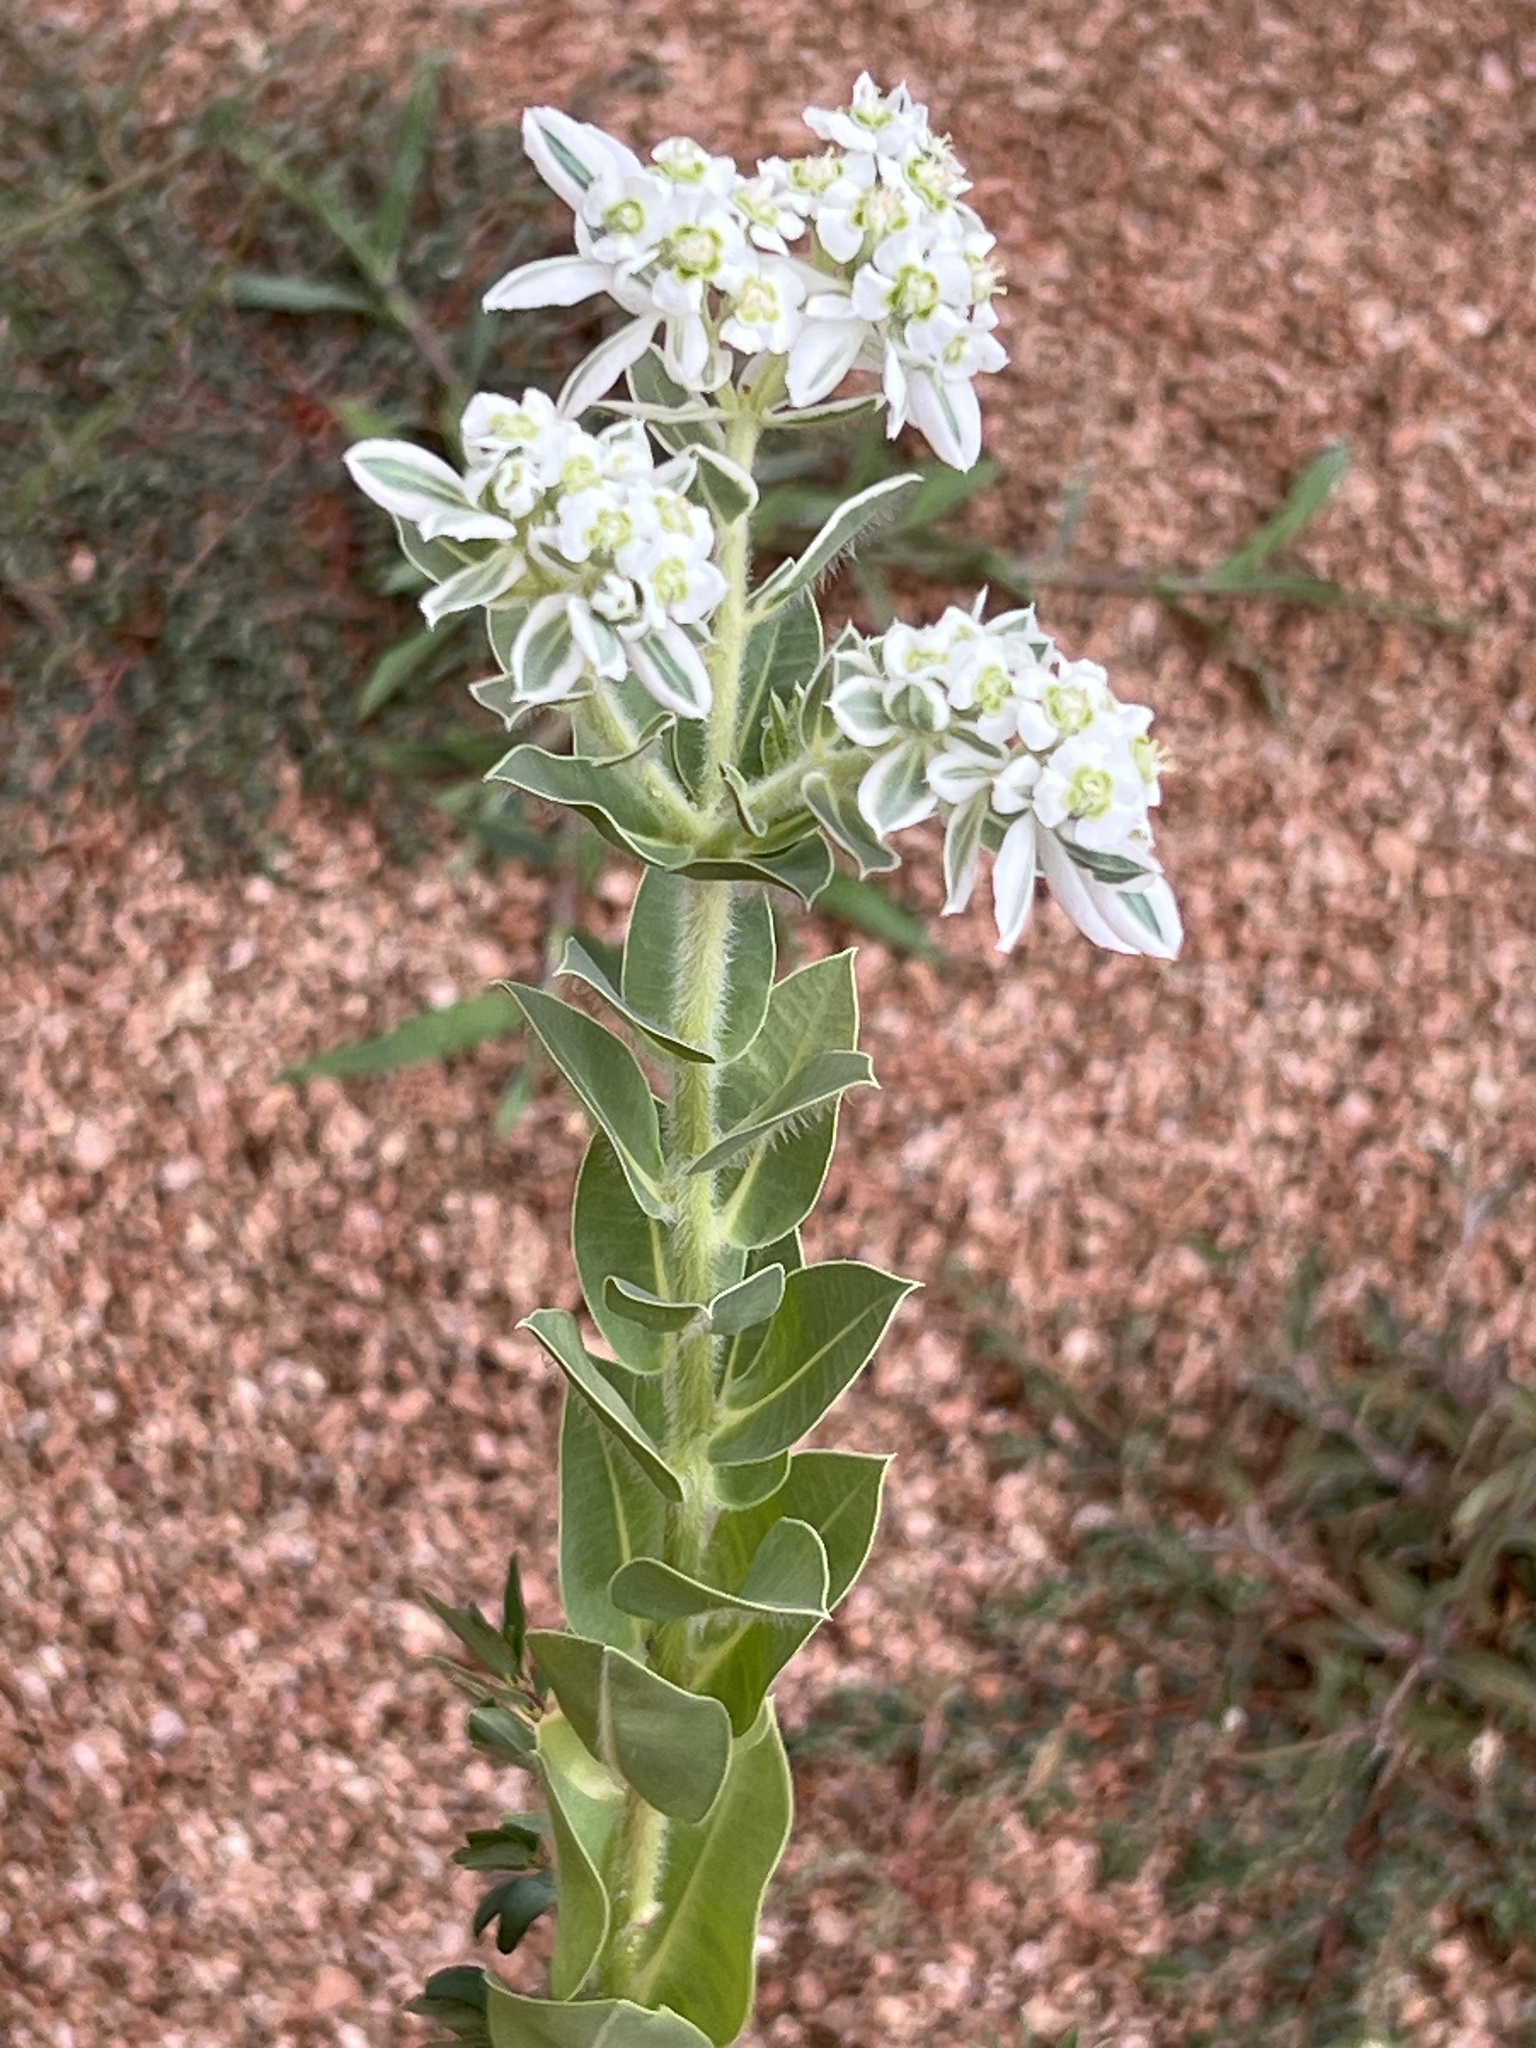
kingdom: Plantae
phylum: Tracheophyta
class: Magnoliopsida
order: Malpighiales
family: Euphorbiaceae
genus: Euphorbia
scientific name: Euphorbia marginata
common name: Ghostweed
